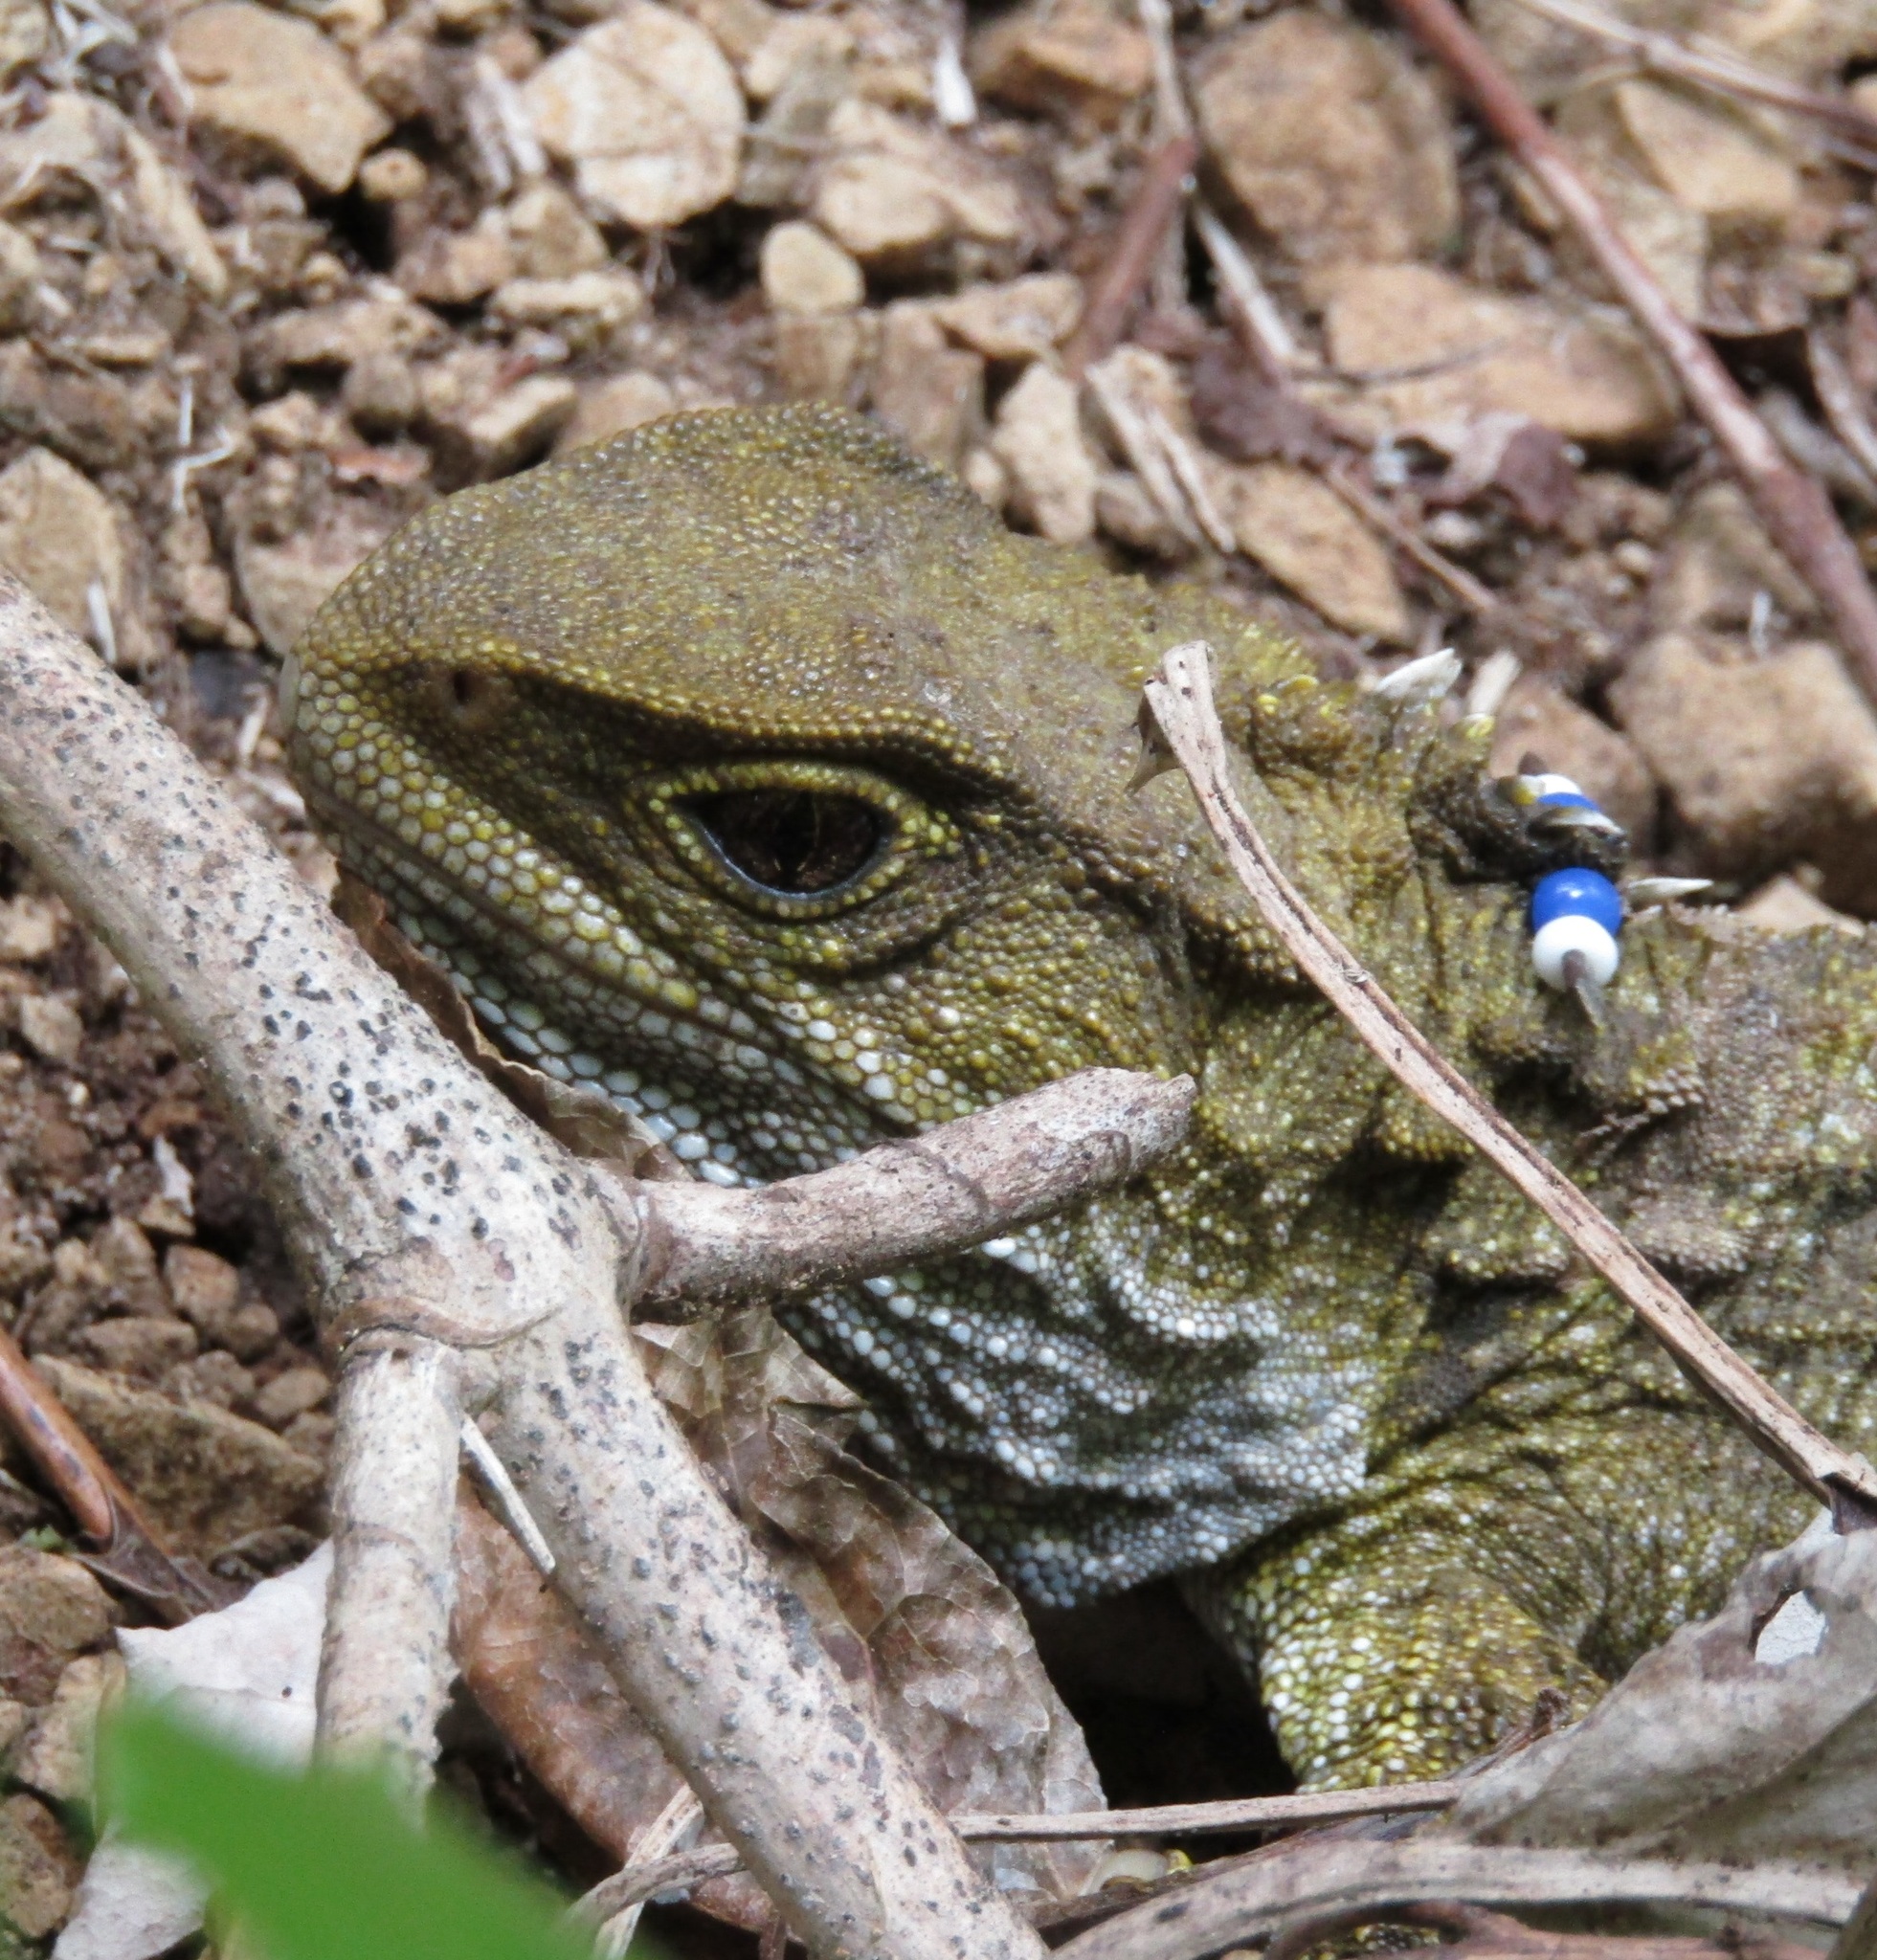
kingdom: Animalia
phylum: Chordata
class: Sphenodontia
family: Sphenodontidae
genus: Sphenodon
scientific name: Sphenodon punctatus
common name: Tuatara
